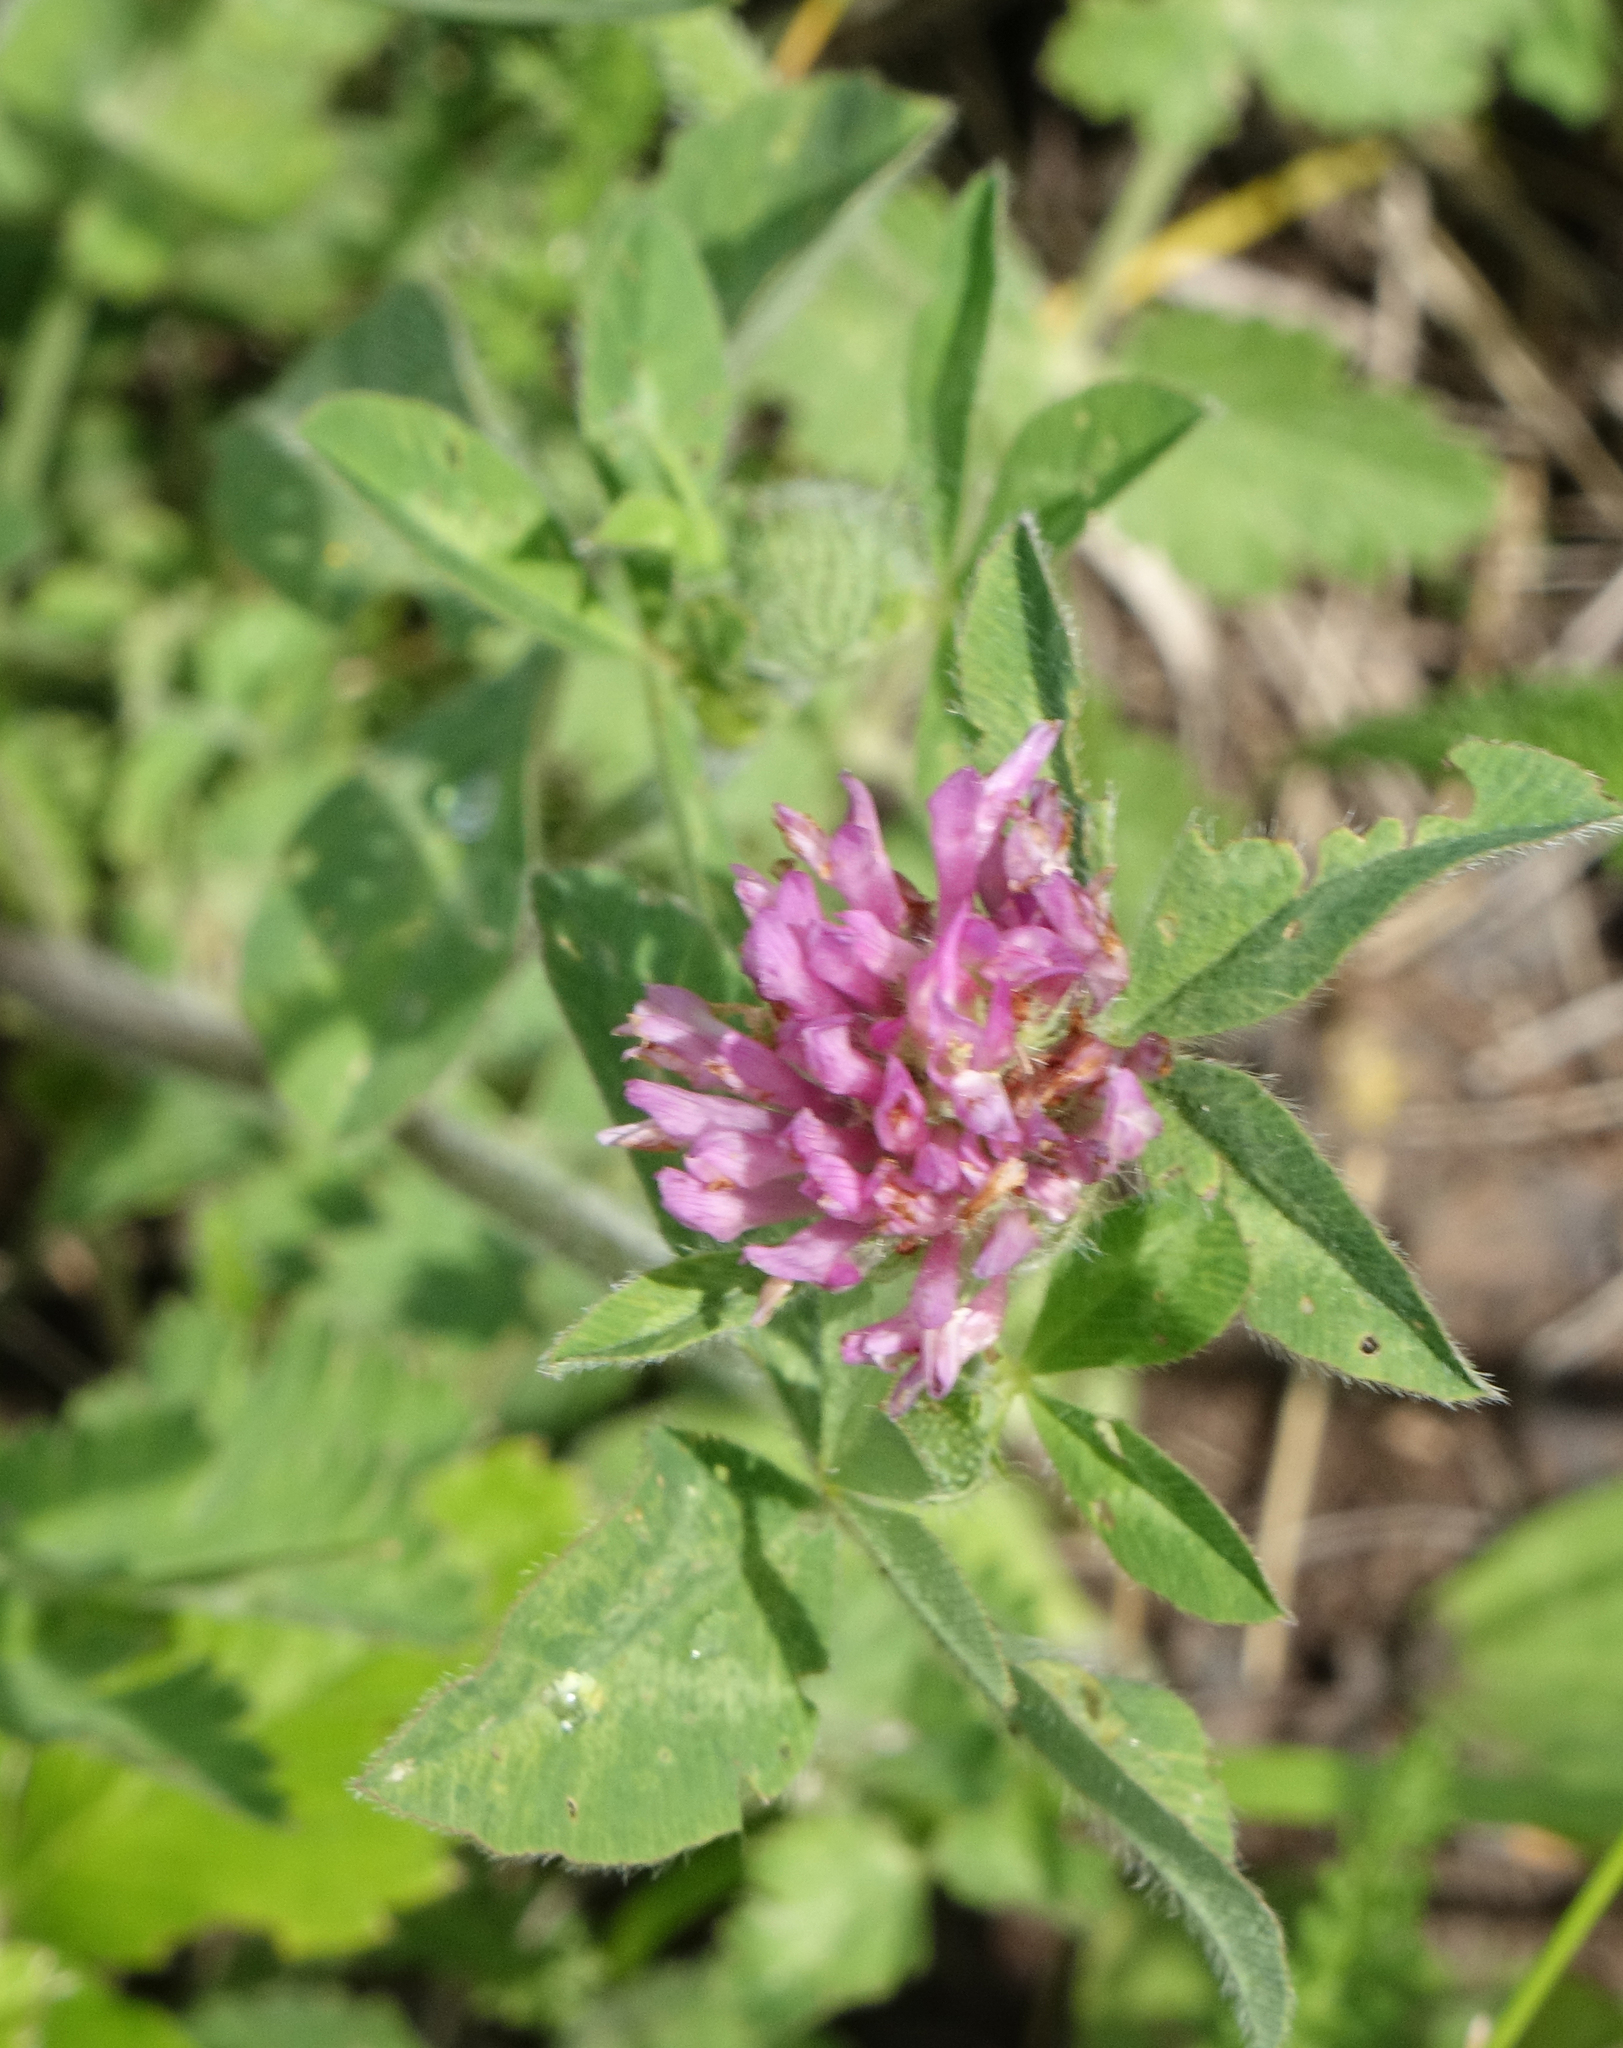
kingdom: Plantae
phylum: Tracheophyta
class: Magnoliopsida
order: Fabales
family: Fabaceae
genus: Trifolium
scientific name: Trifolium pratense
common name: Red clover
